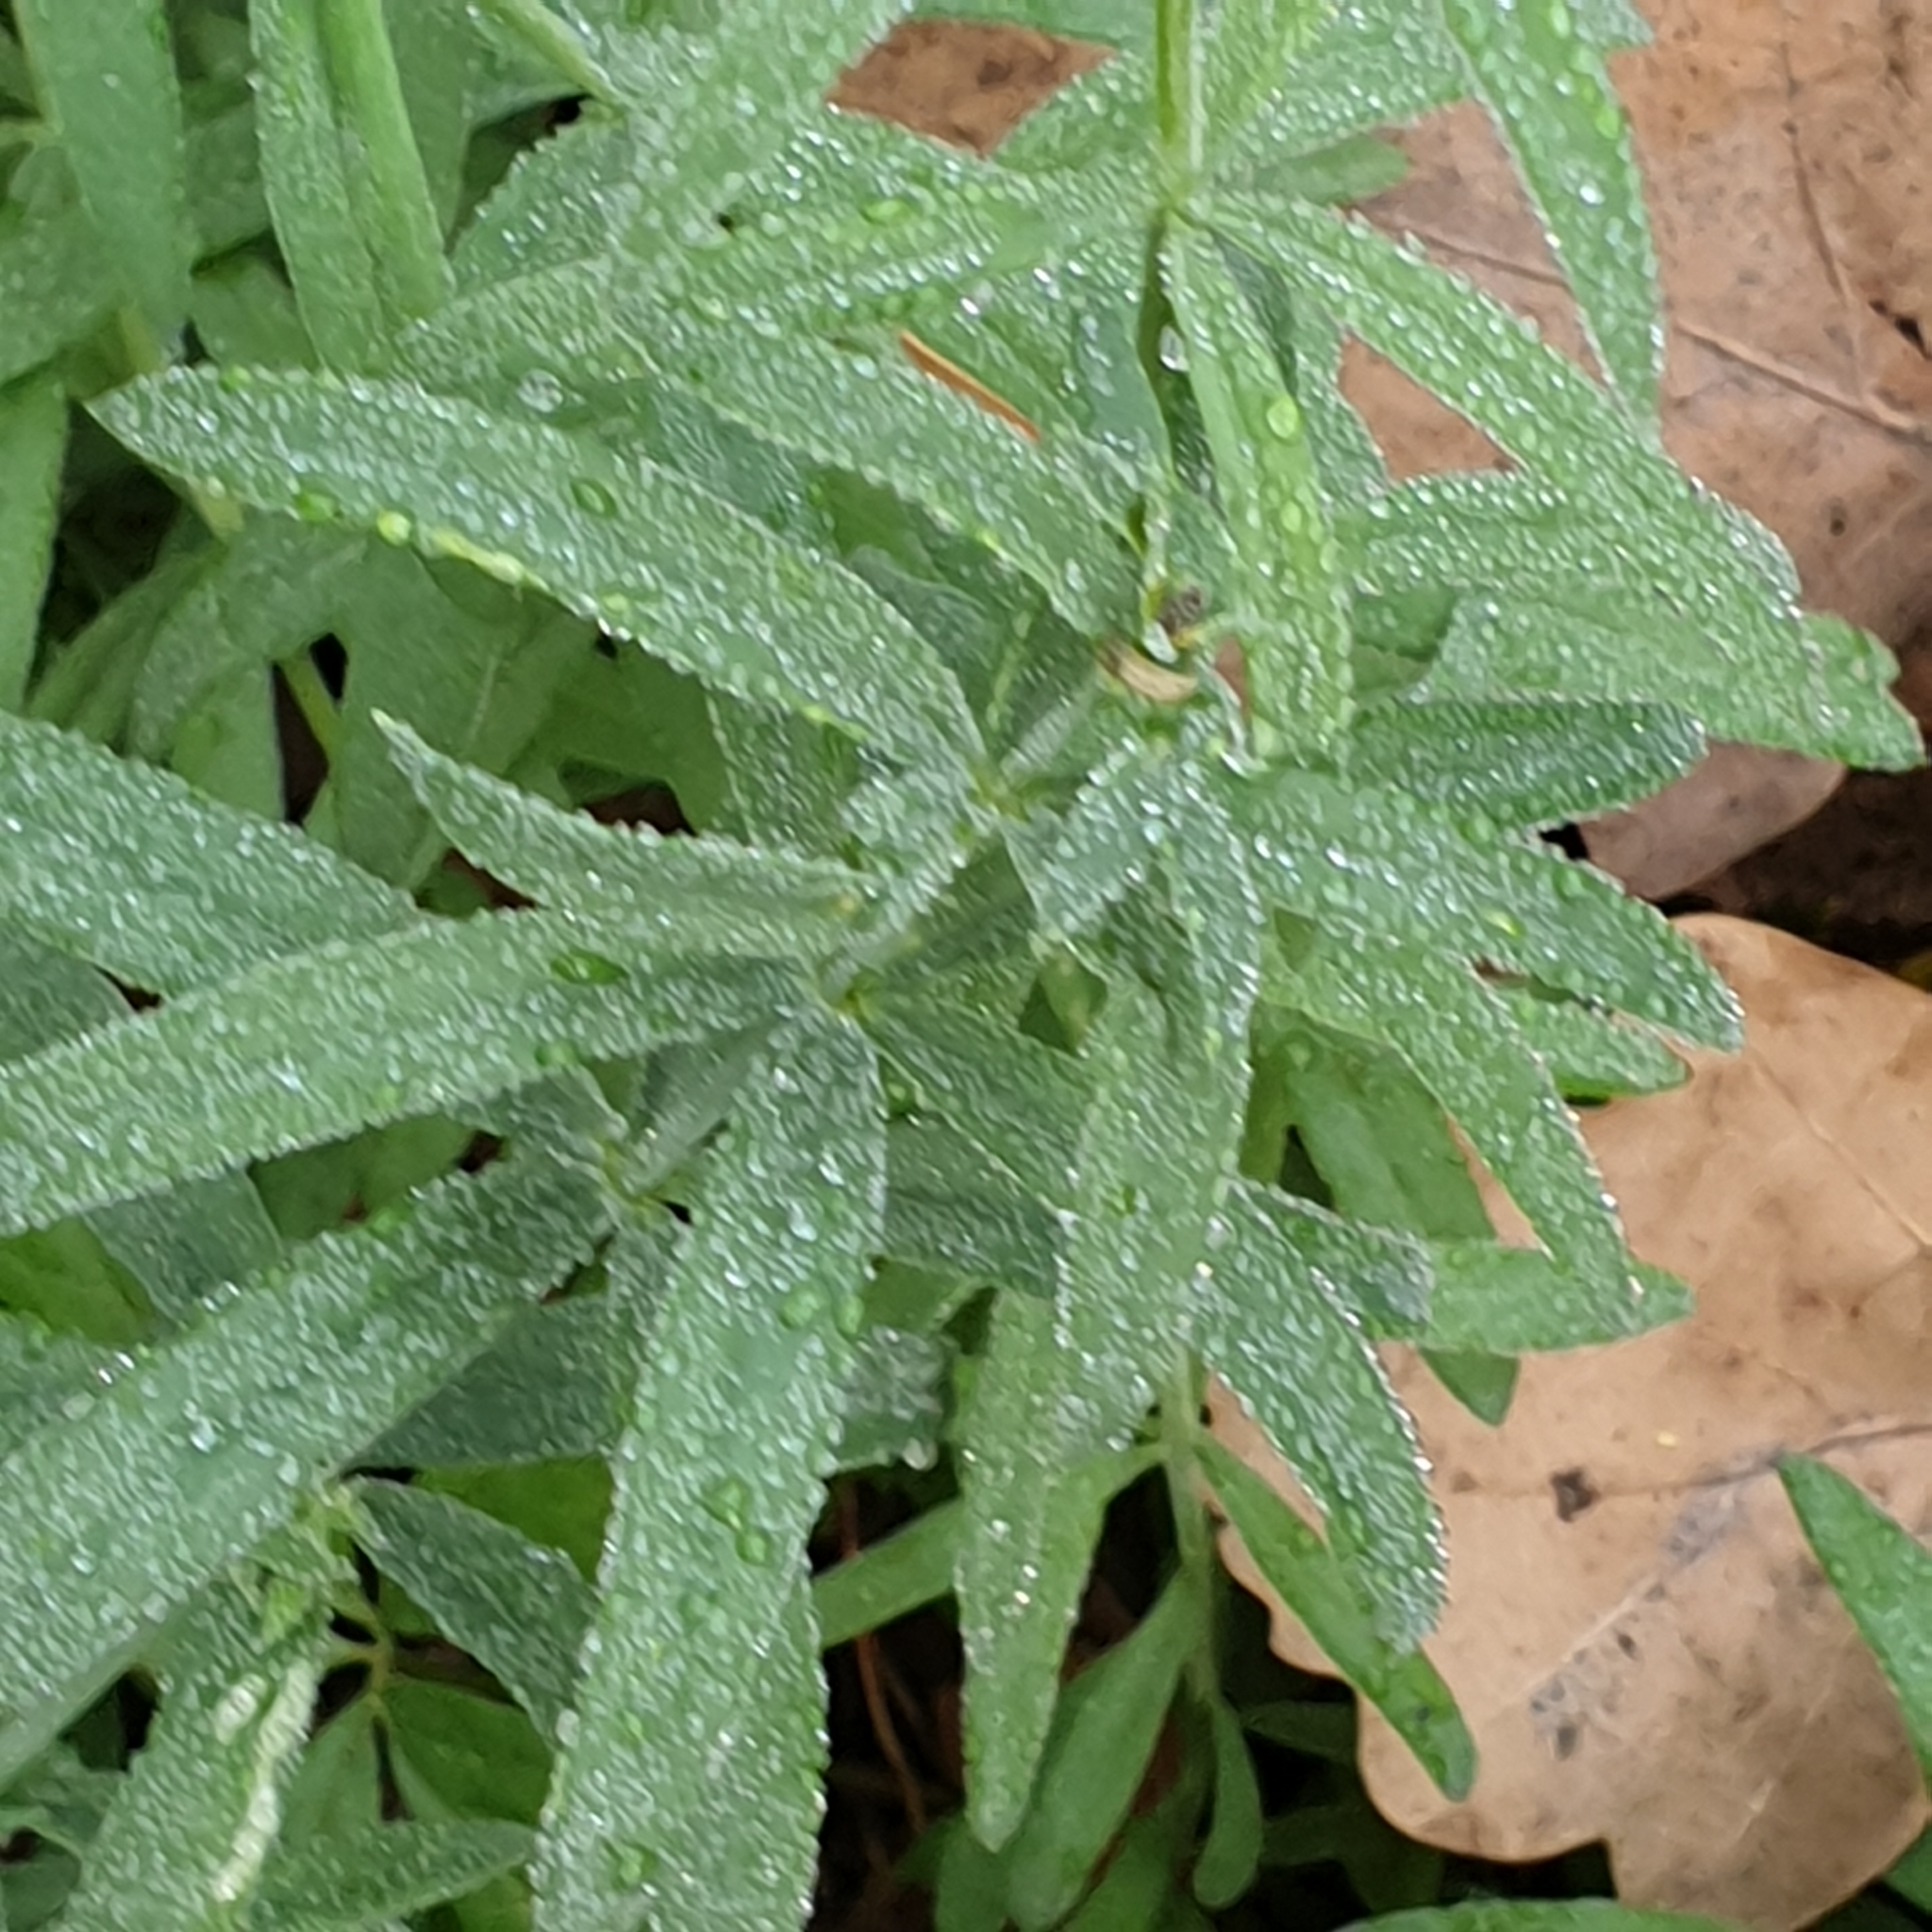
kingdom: Plantae
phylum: Tracheophyta
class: Magnoliopsida
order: Lamiales
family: Plantaginaceae
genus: Linaria
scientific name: Linaria repens
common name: Pale toadflax
